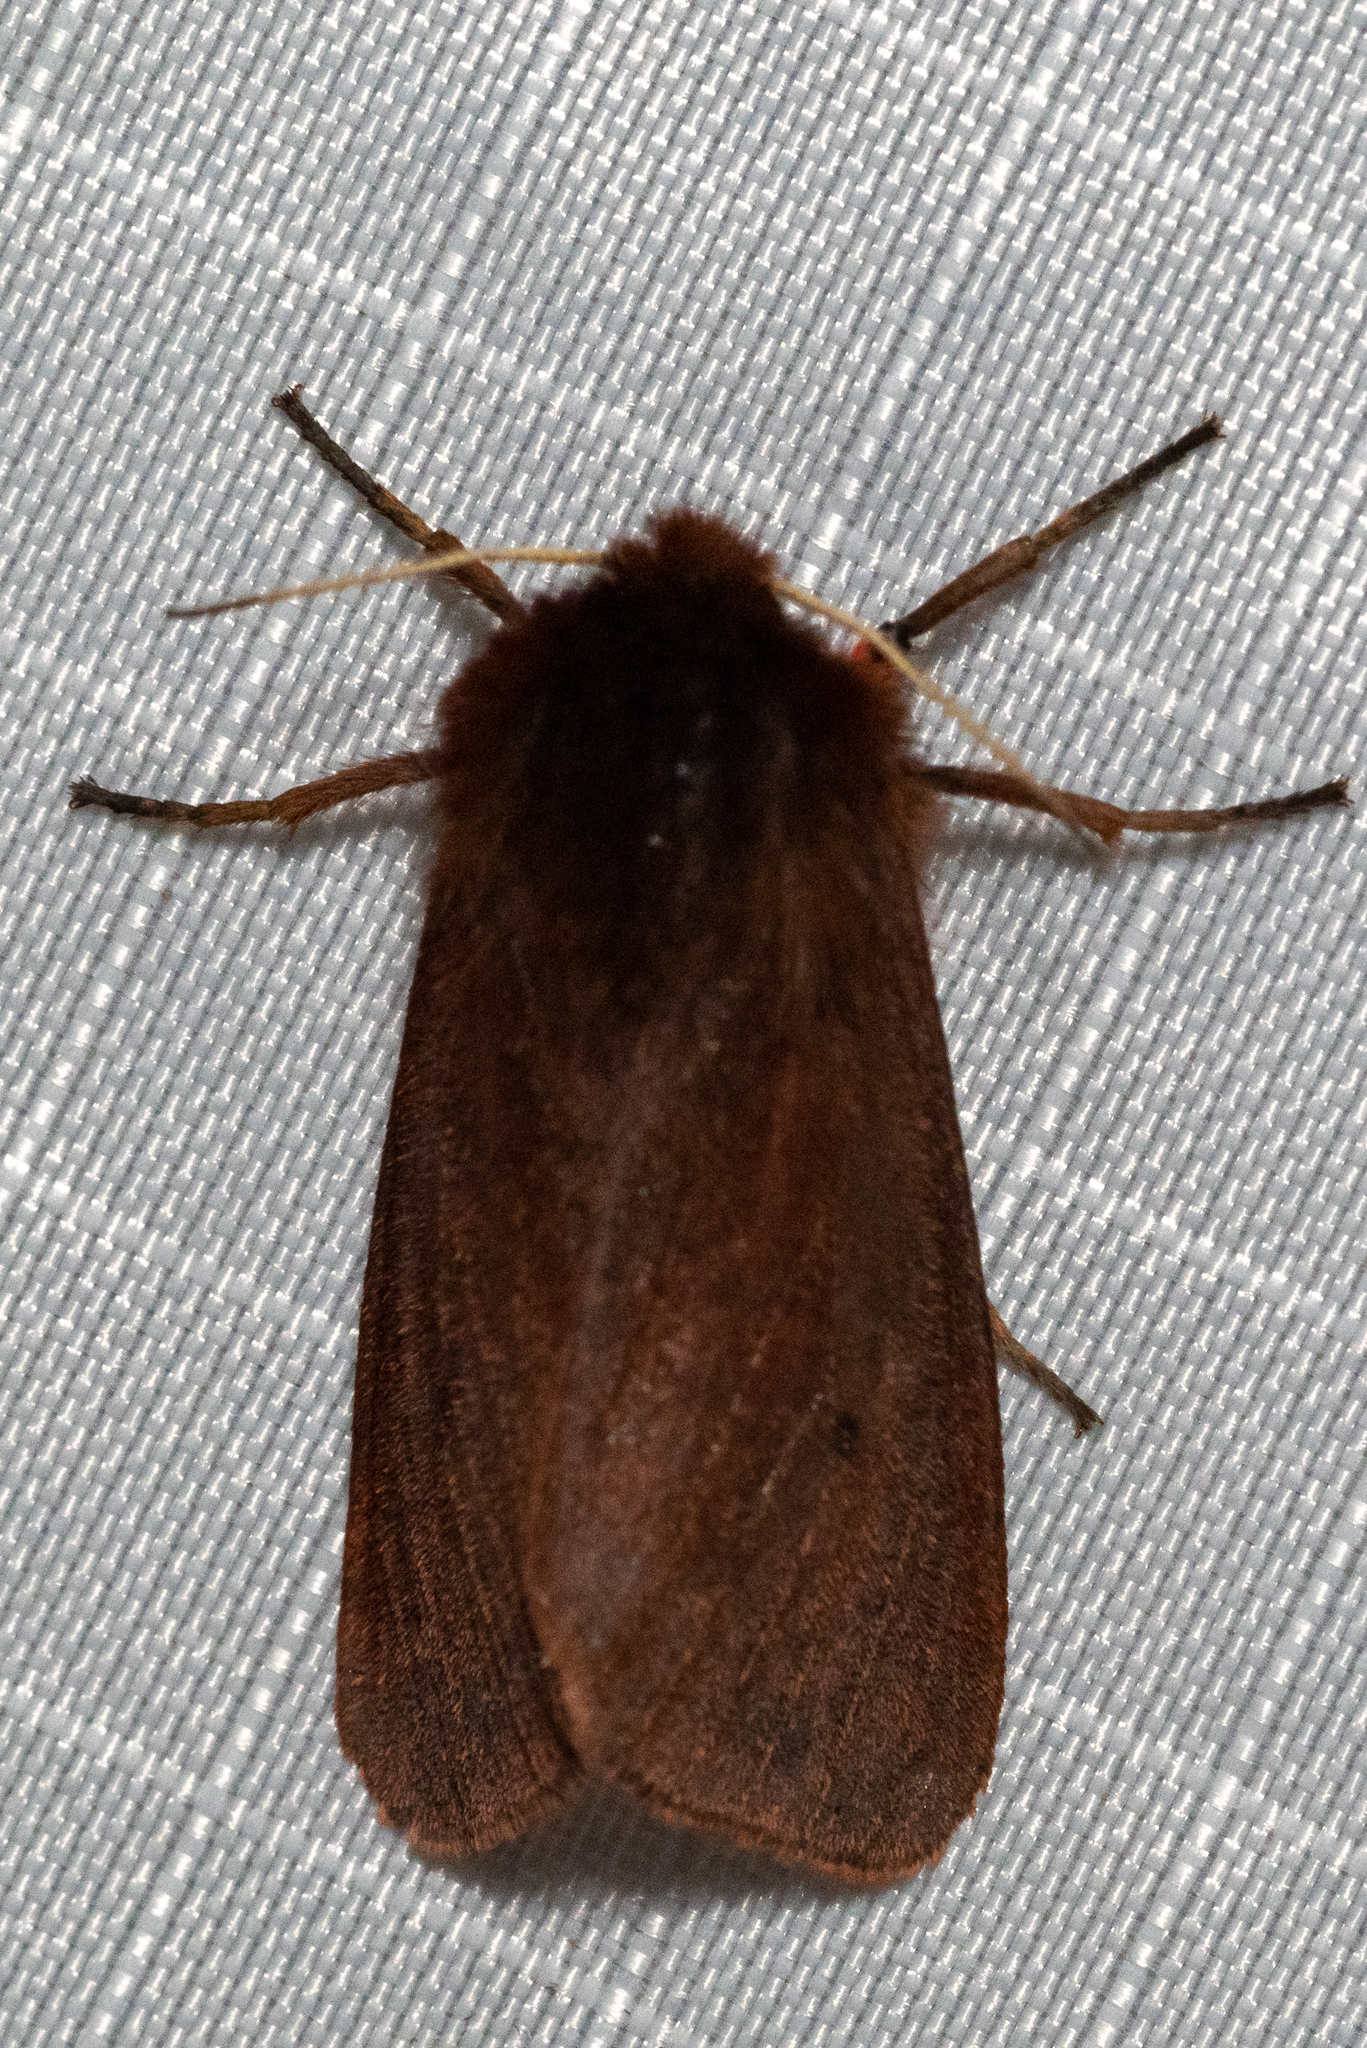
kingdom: Animalia
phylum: Arthropoda
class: Insecta
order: Lepidoptera
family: Erebidae
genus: Phragmatobia
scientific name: Phragmatobia fuliginosa
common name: Ruby tiger
